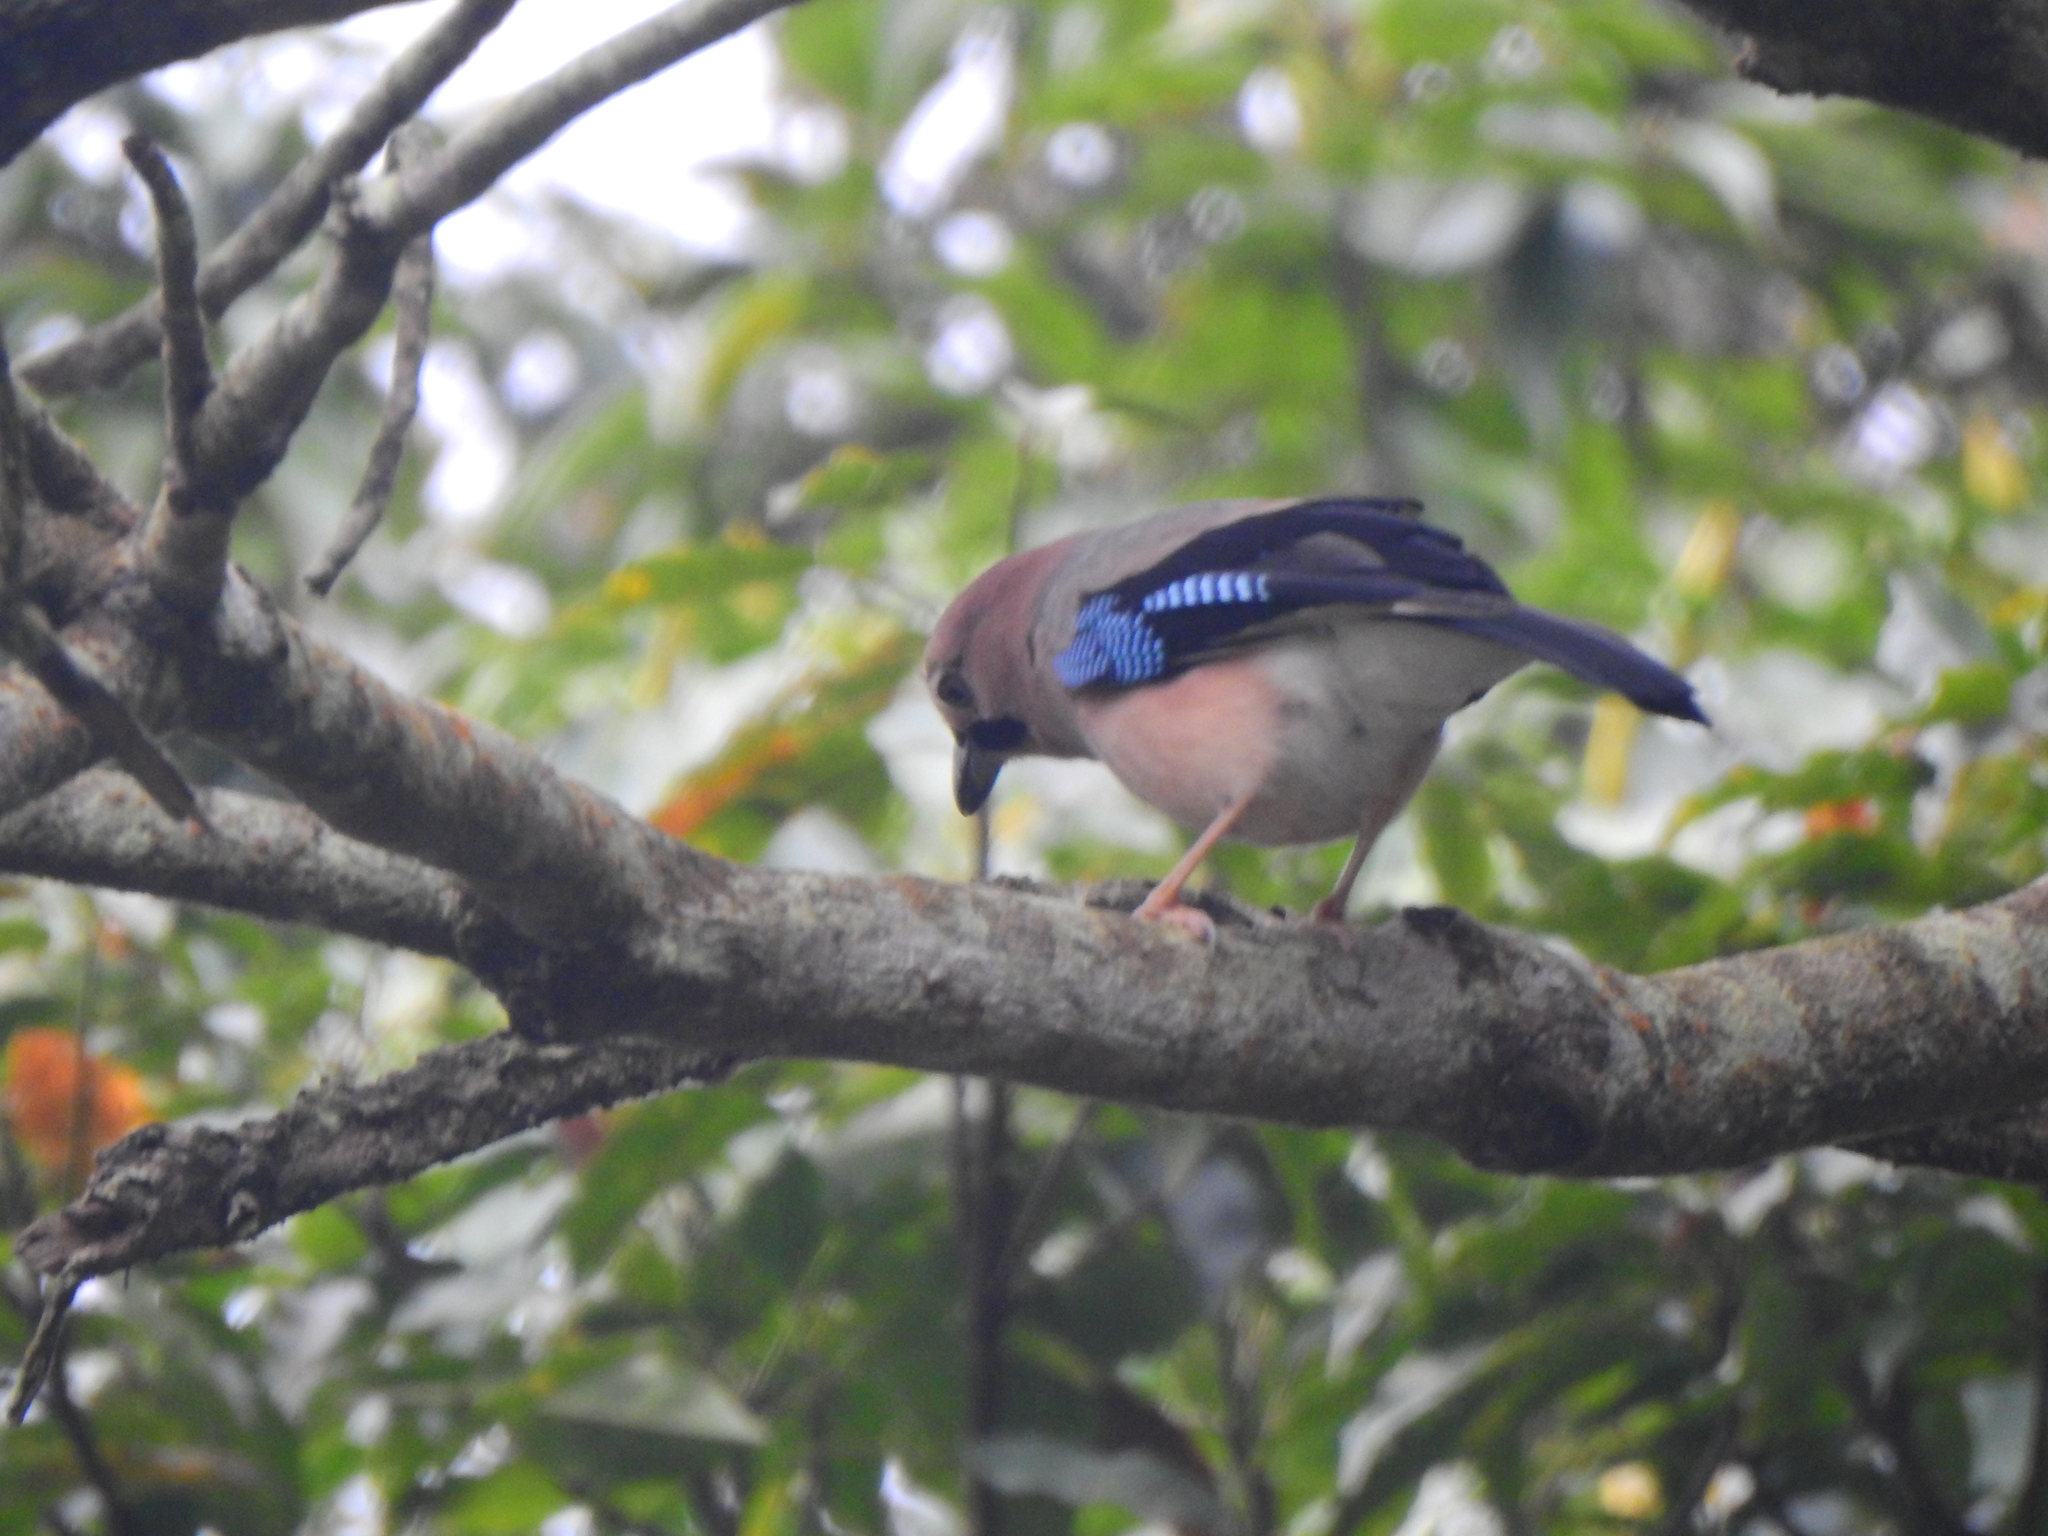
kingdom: Animalia
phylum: Chordata
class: Aves
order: Passeriformes
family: Corvidae
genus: Garrulus
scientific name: Garrulus glandarius
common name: Eurasian jay
